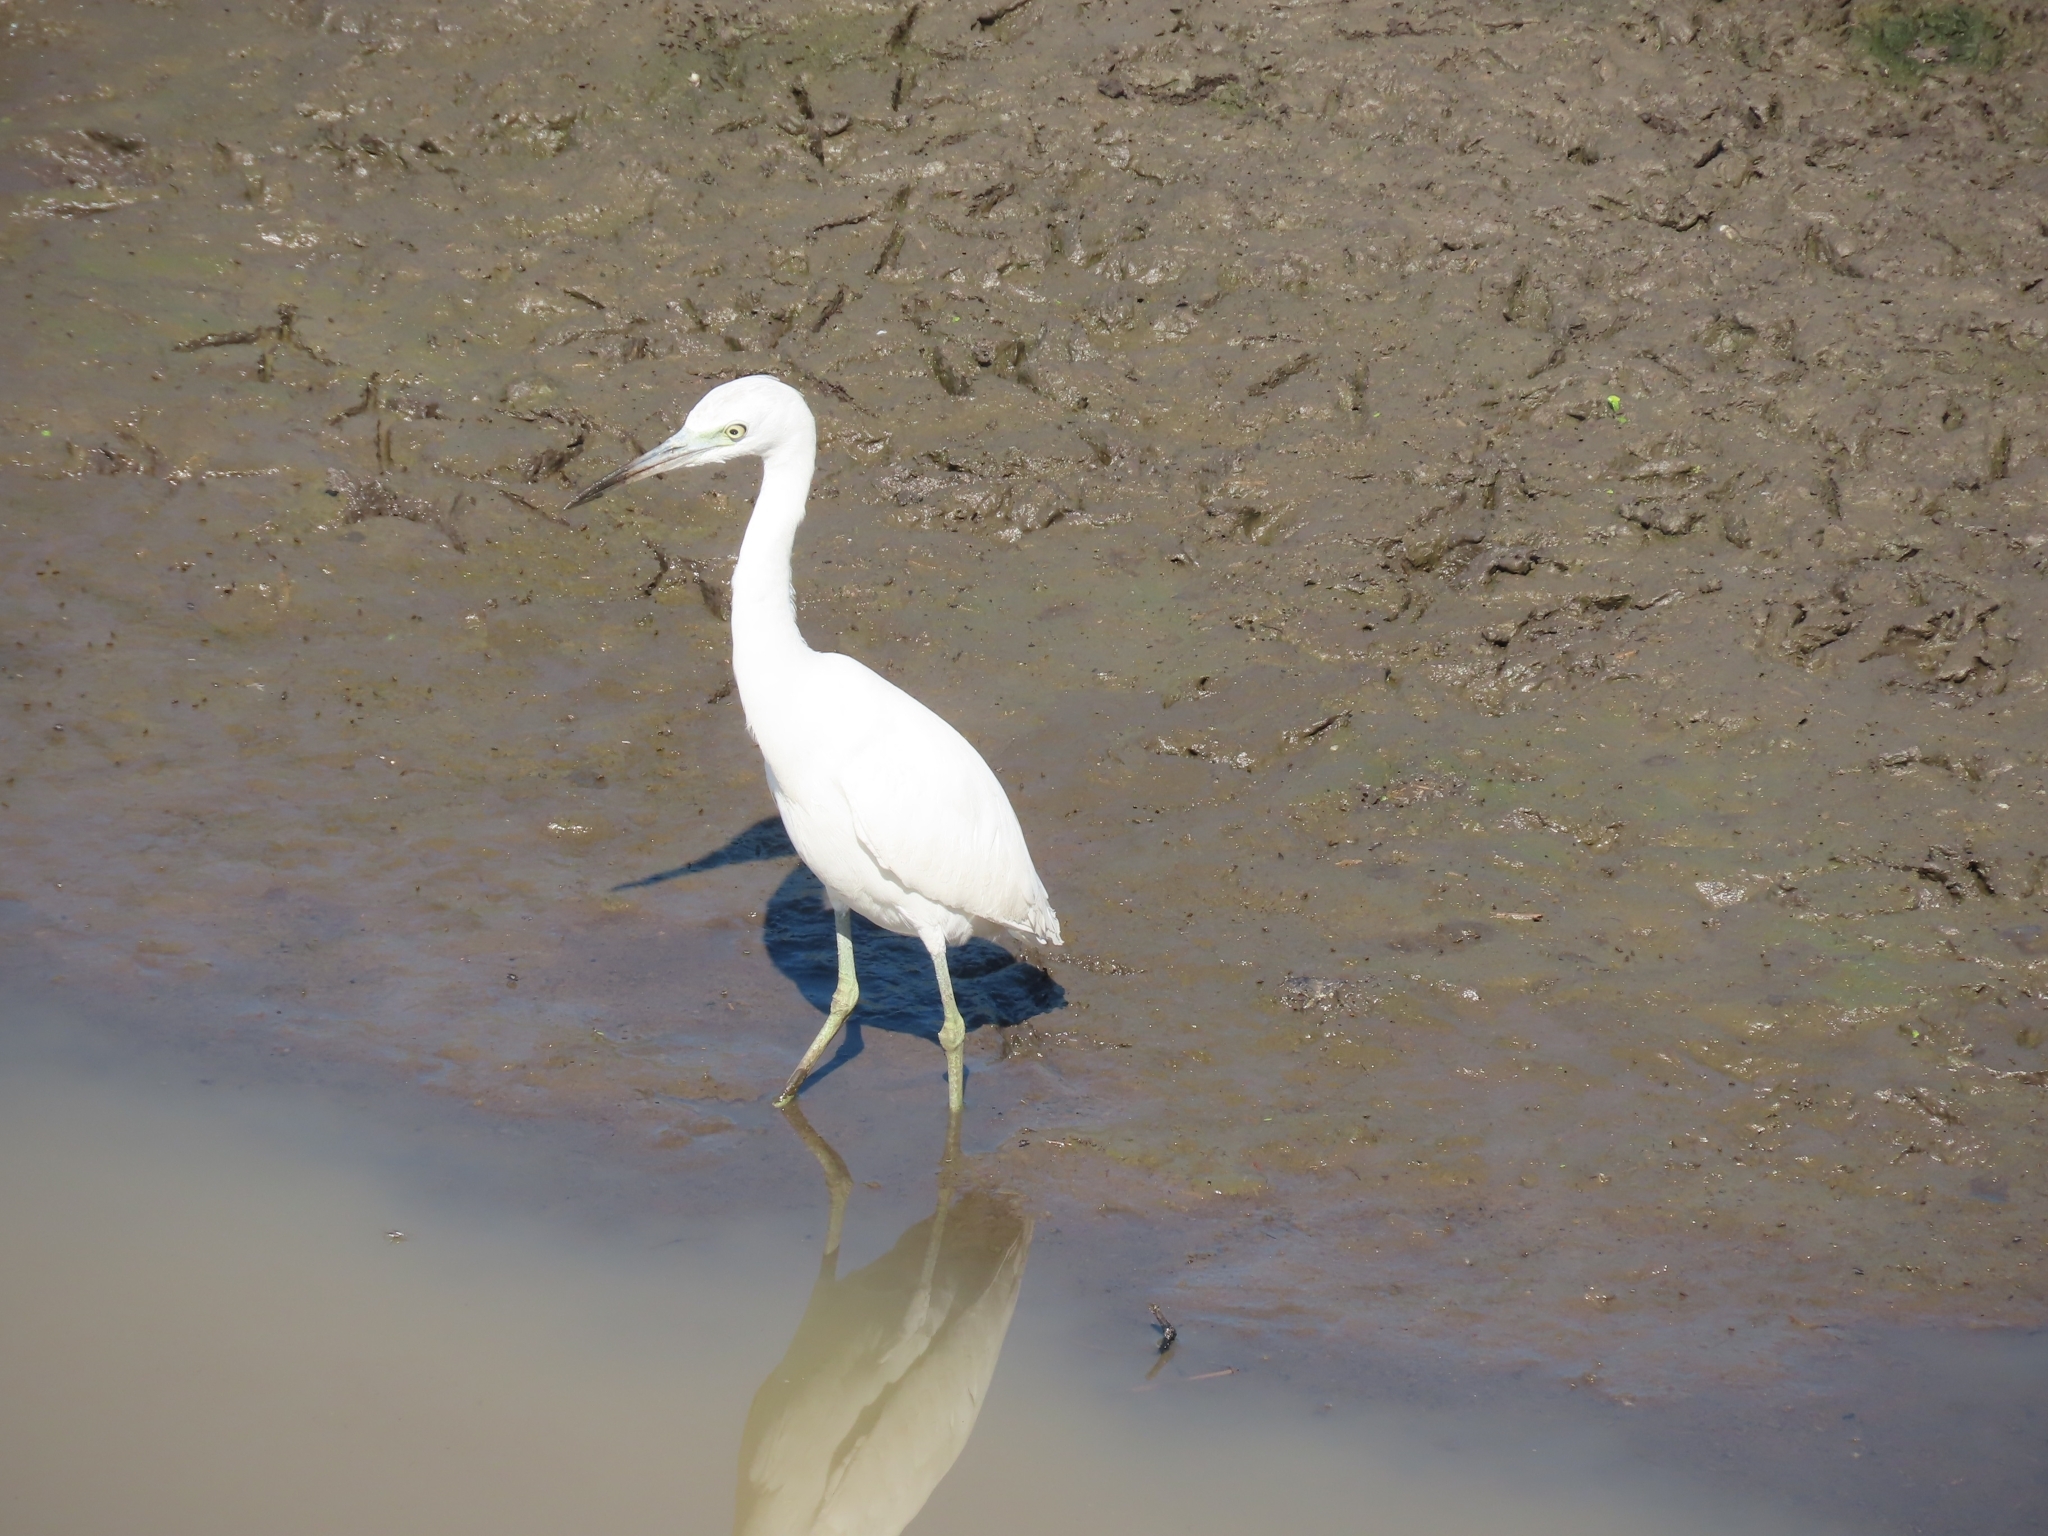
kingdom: Animalia
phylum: Chordata
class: Aves
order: Pelecaniformes
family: Ardeidae
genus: Egretta
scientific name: Egretta caerulea
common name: Little blue heron
